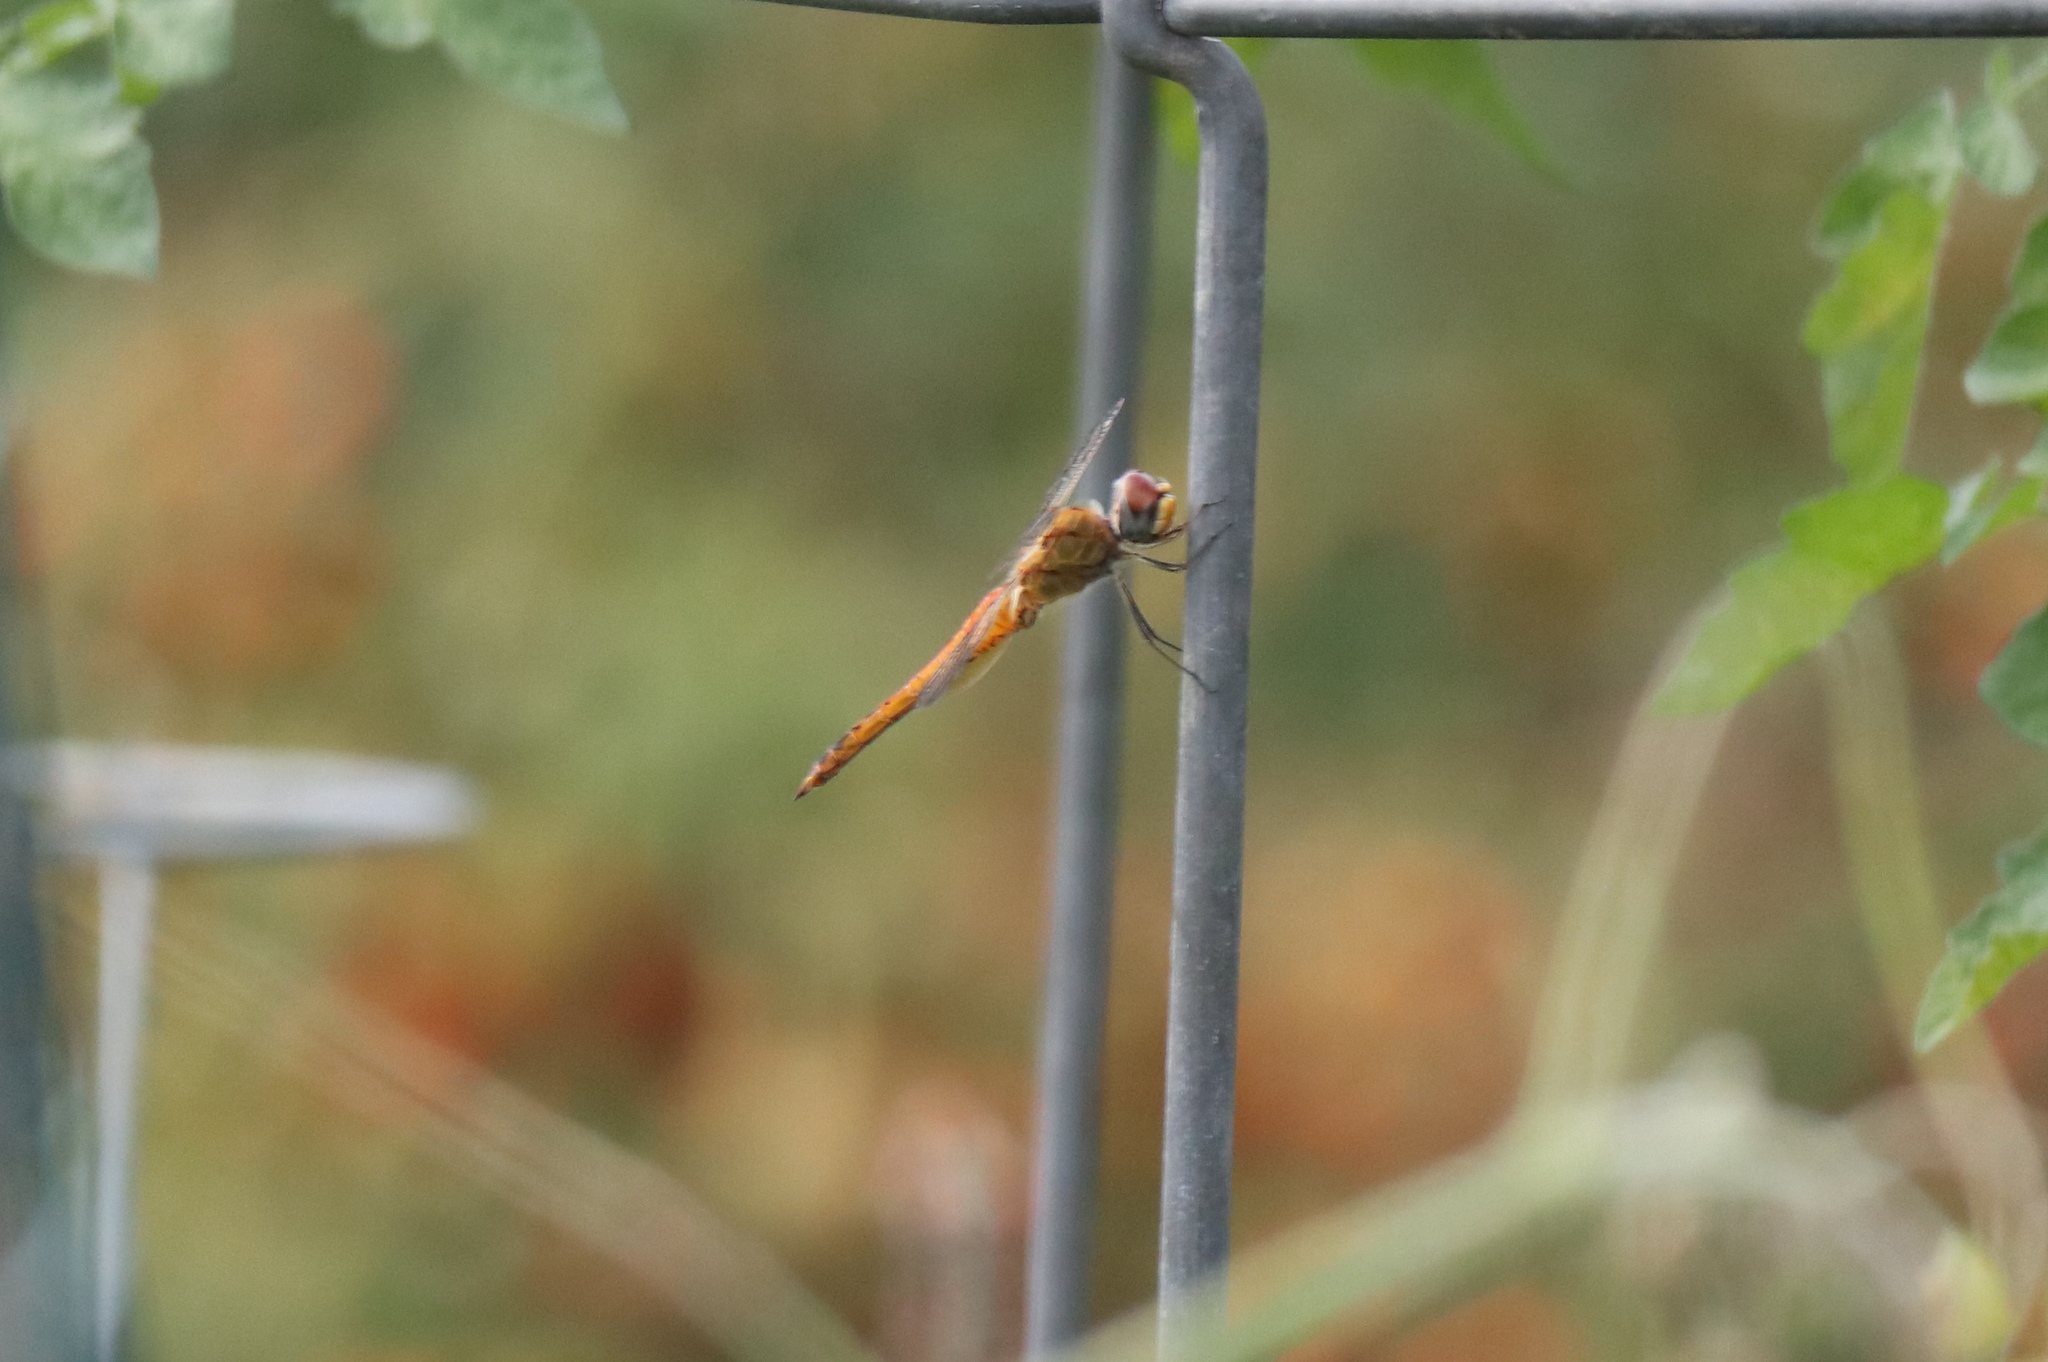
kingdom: Animalia
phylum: Arthropoda
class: Insecta
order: Odonata
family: Libellulidae
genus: Pantala
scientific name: Pantala flavescens
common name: Wandering glider
